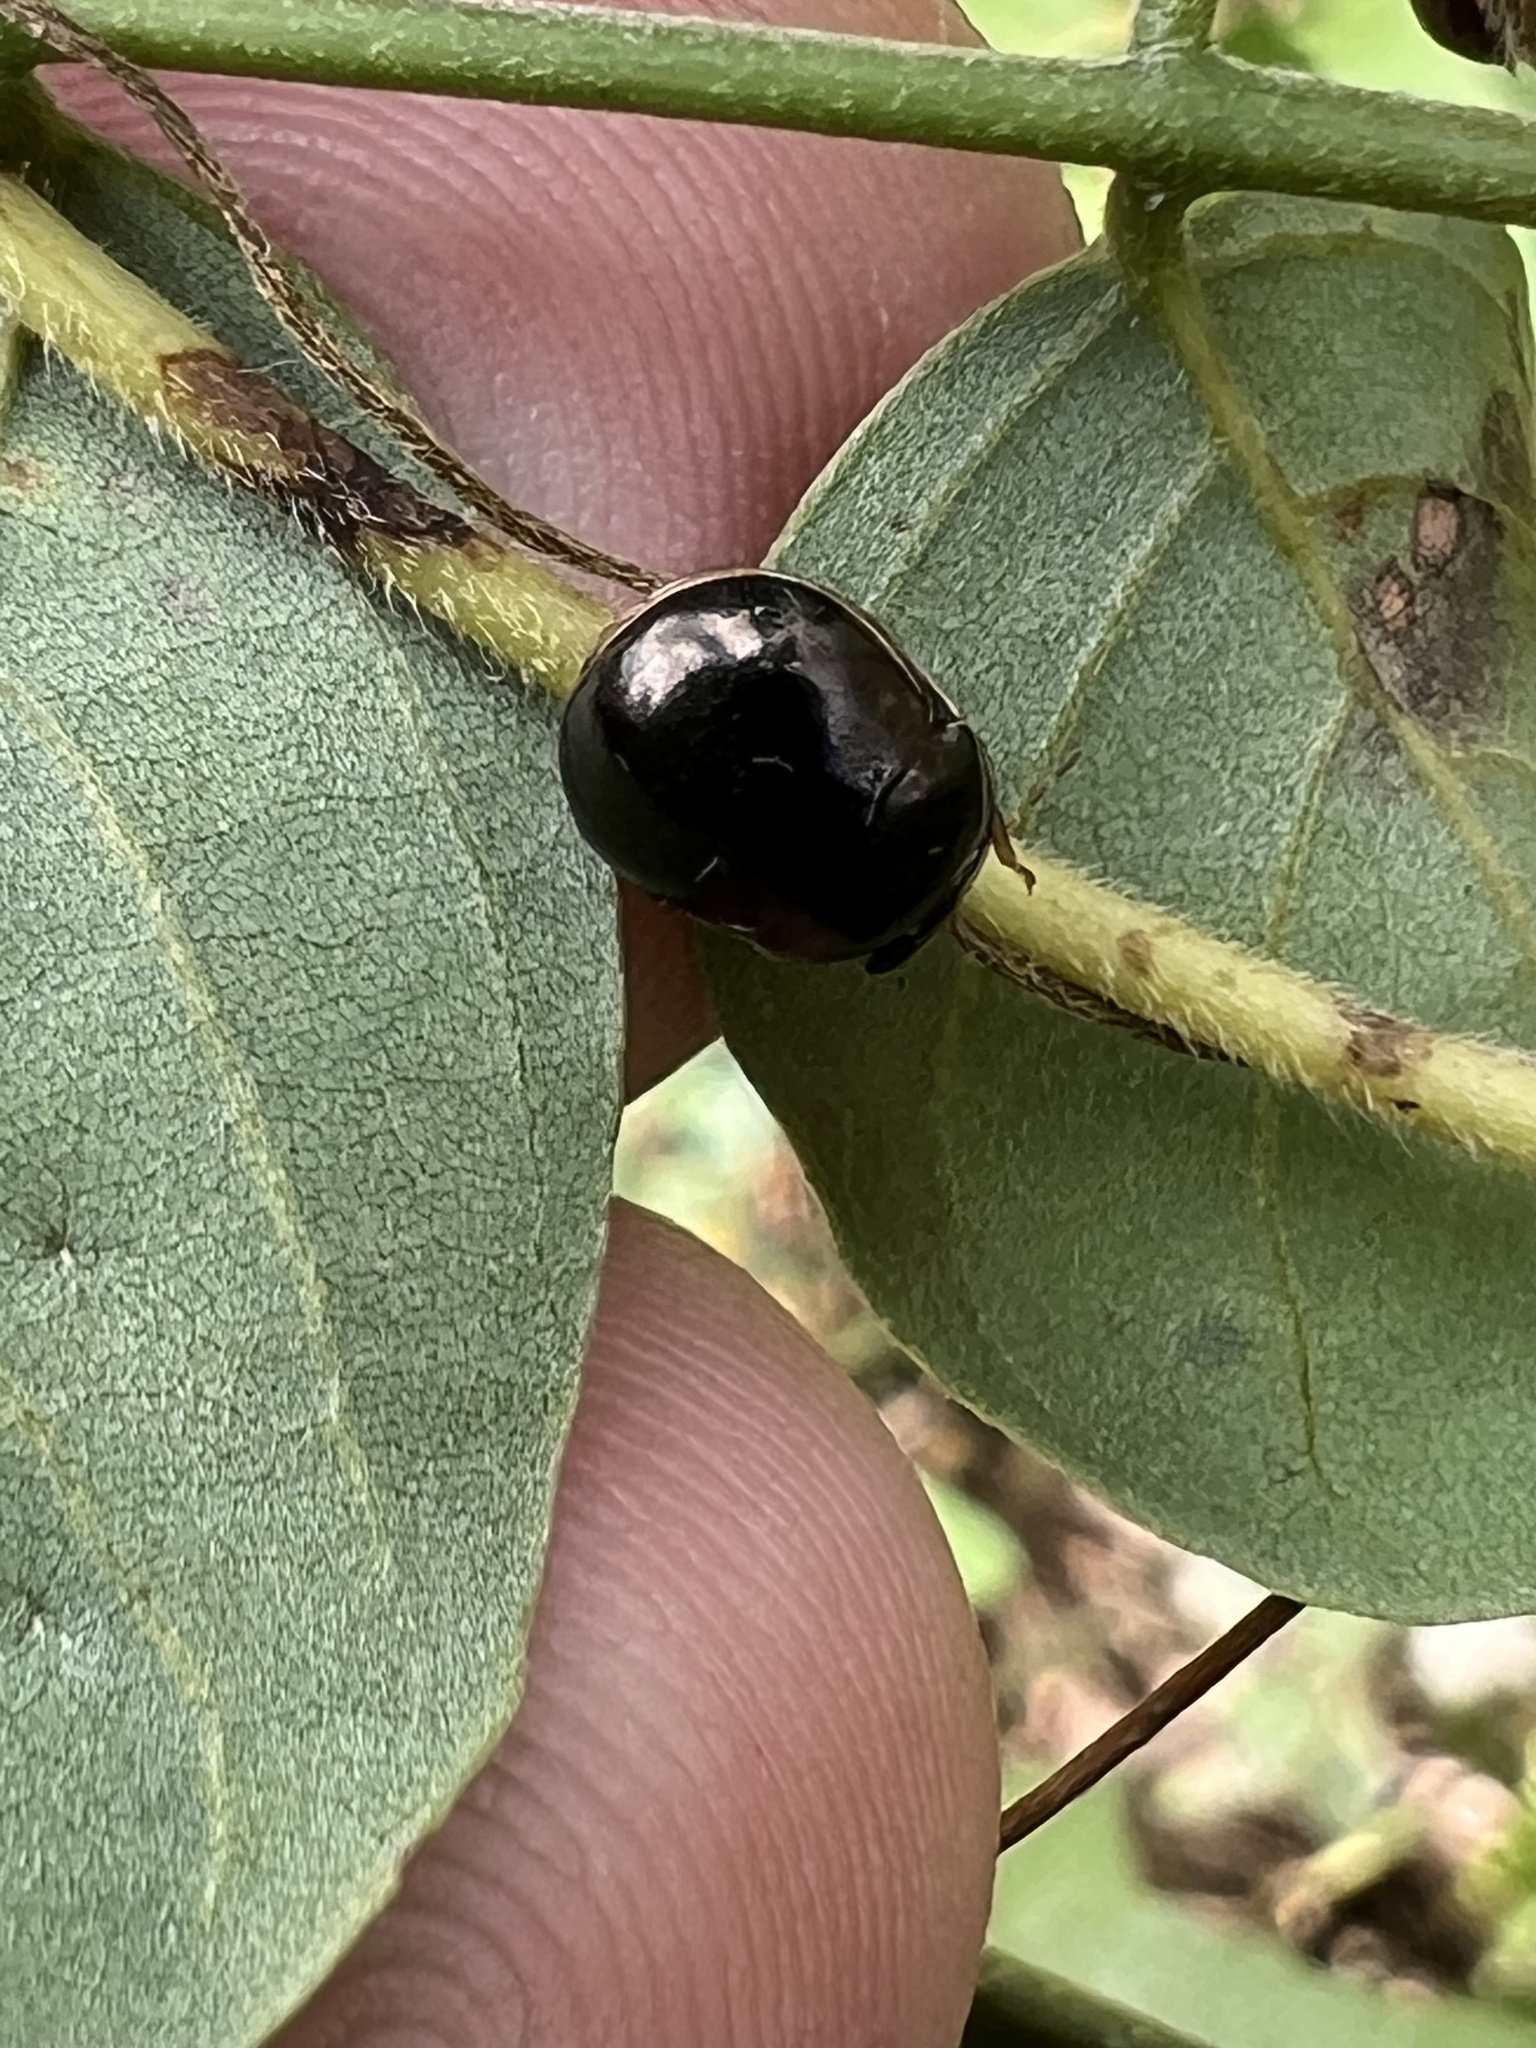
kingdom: Animalia
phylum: Arthropoda
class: Insecta
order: Hemiptera
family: Plataspidae
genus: Brachyplatys
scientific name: Brachyplatys subaeneus
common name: Black bean bug
